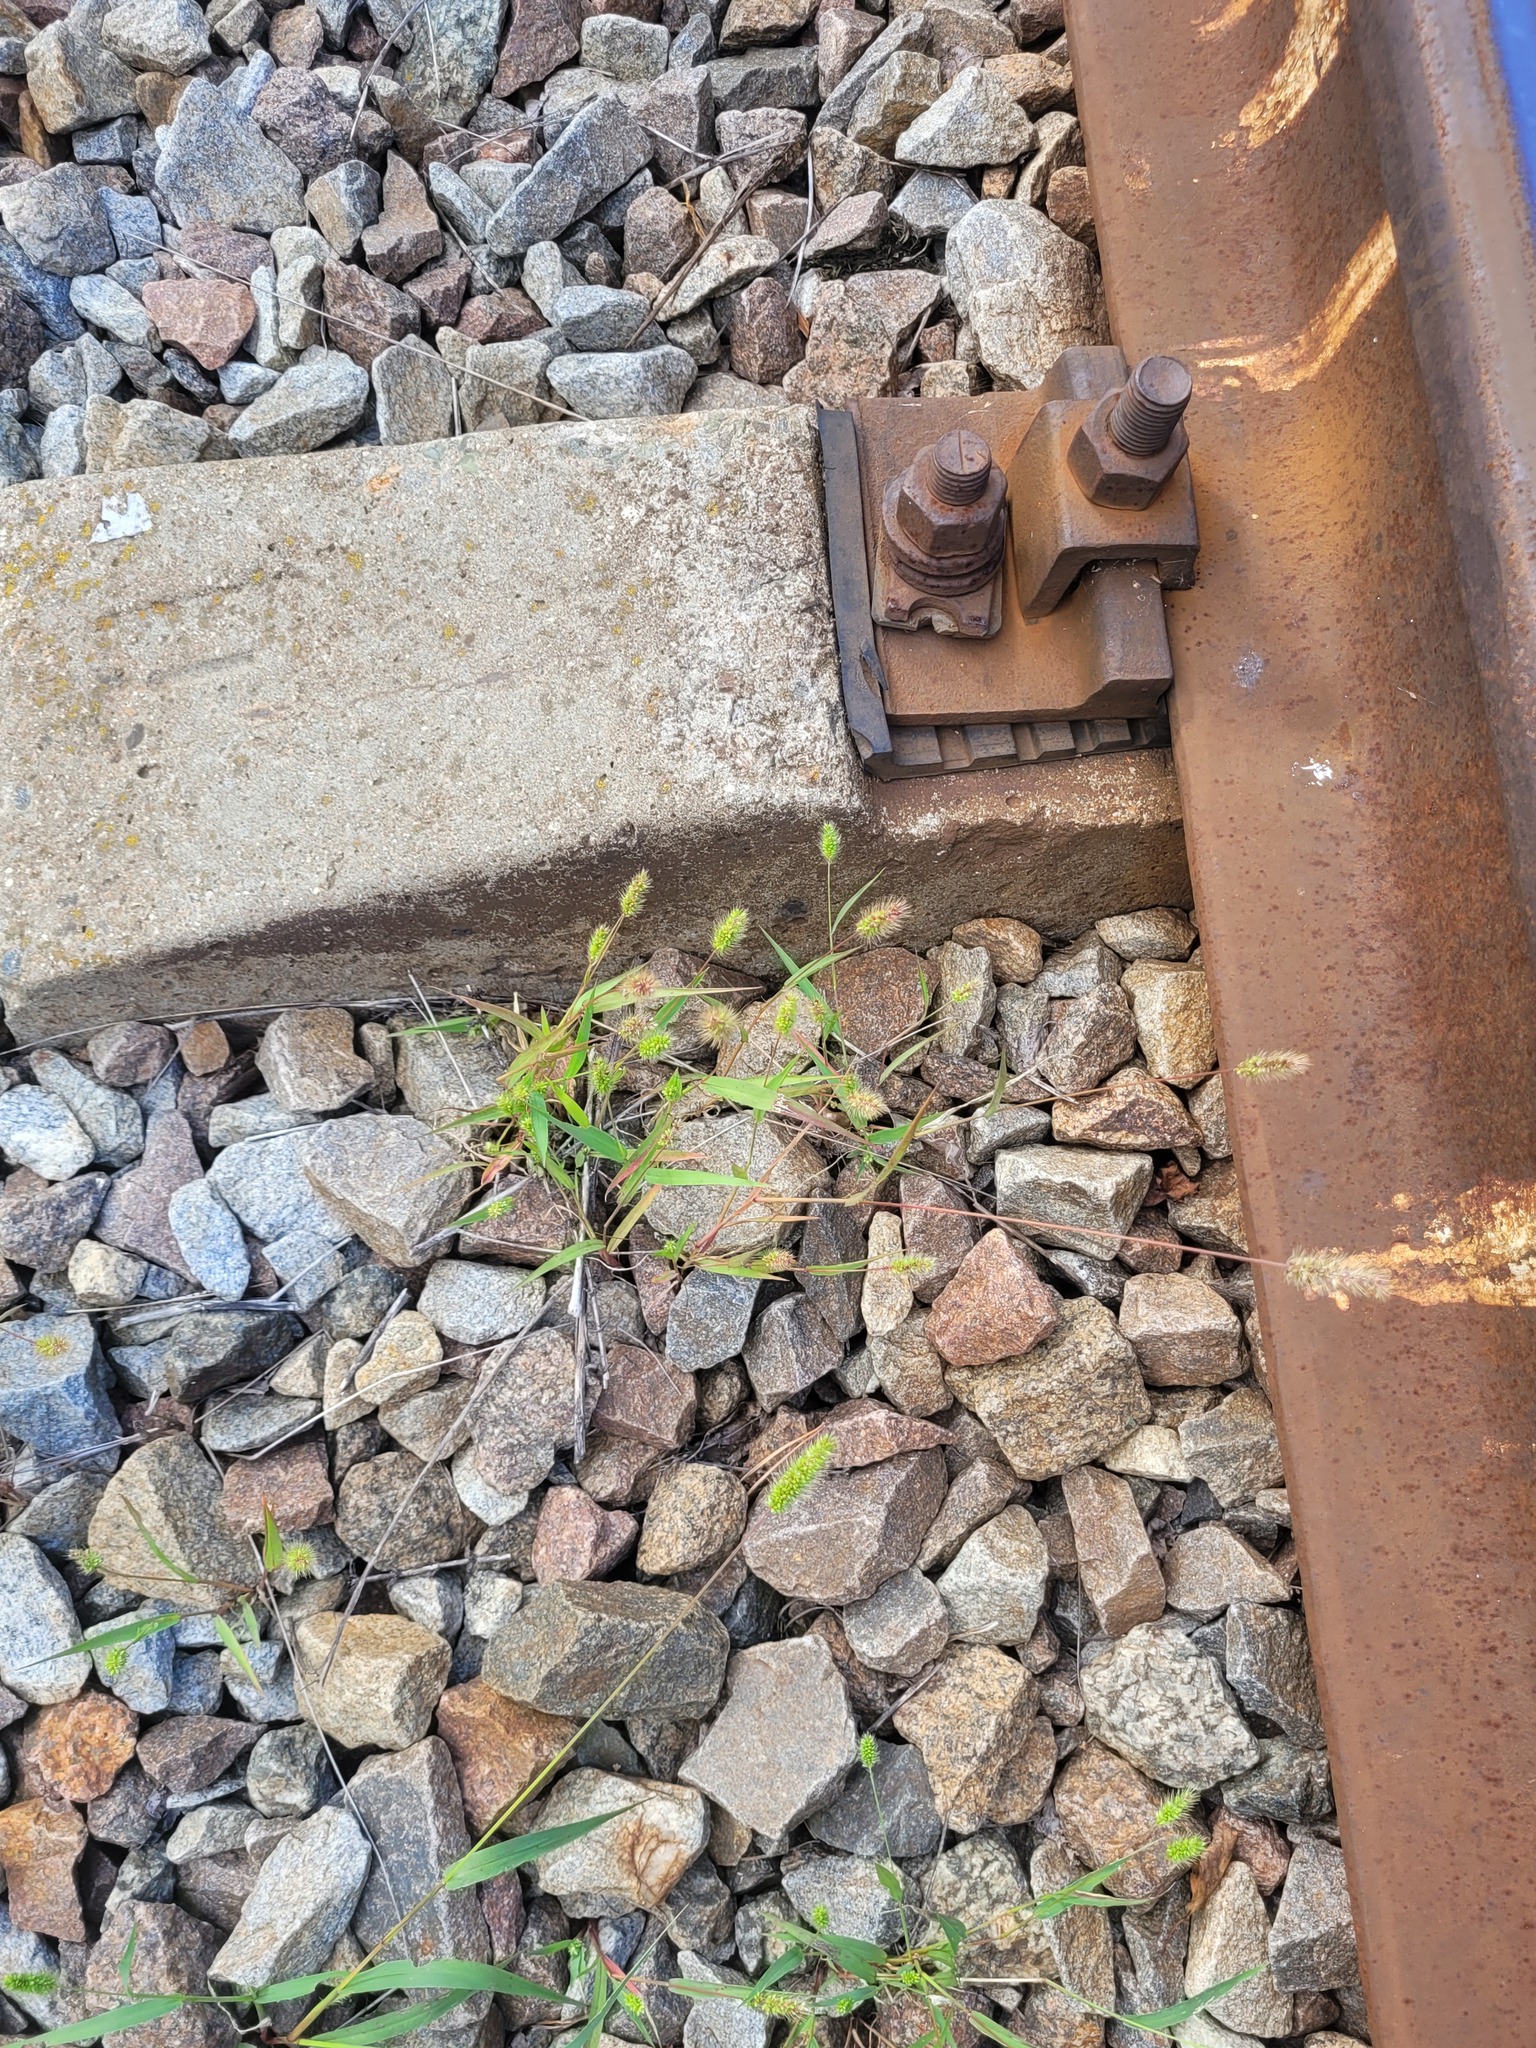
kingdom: Plantae
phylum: Tracheophyta
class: Liliopsida
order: Poales
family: Poaceae
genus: Setaria
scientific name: Setaria viridis
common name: Green bristlegrass
